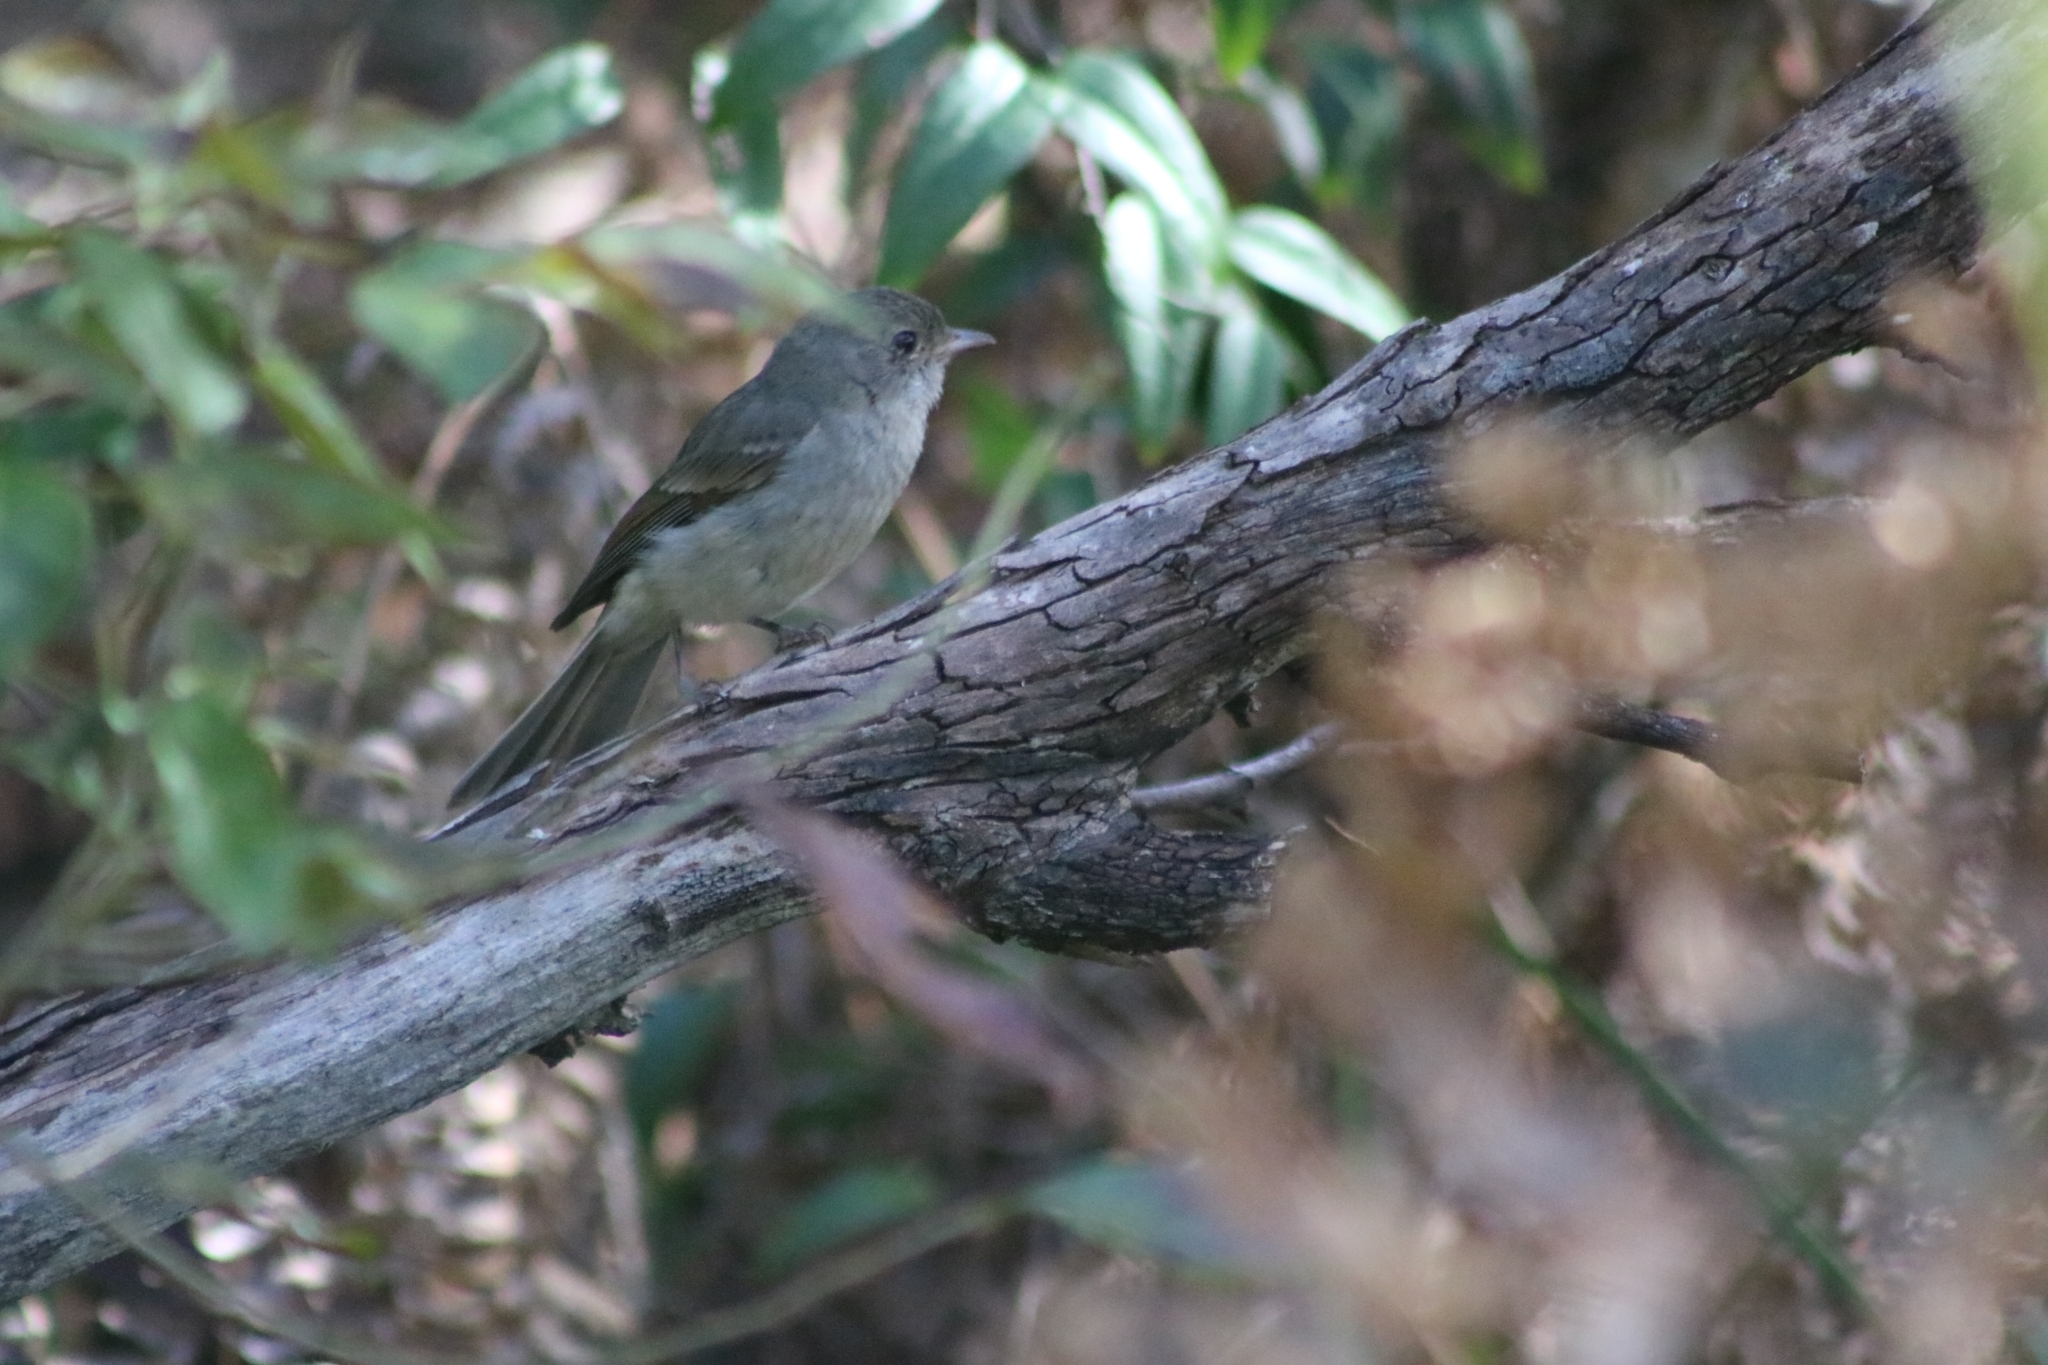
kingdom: Animalia
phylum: Chordata
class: Aves
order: Passeriformes
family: Pachycephalidae
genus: Pachycephala
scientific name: Pachycephala pectoralis
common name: Australian golden whistler
